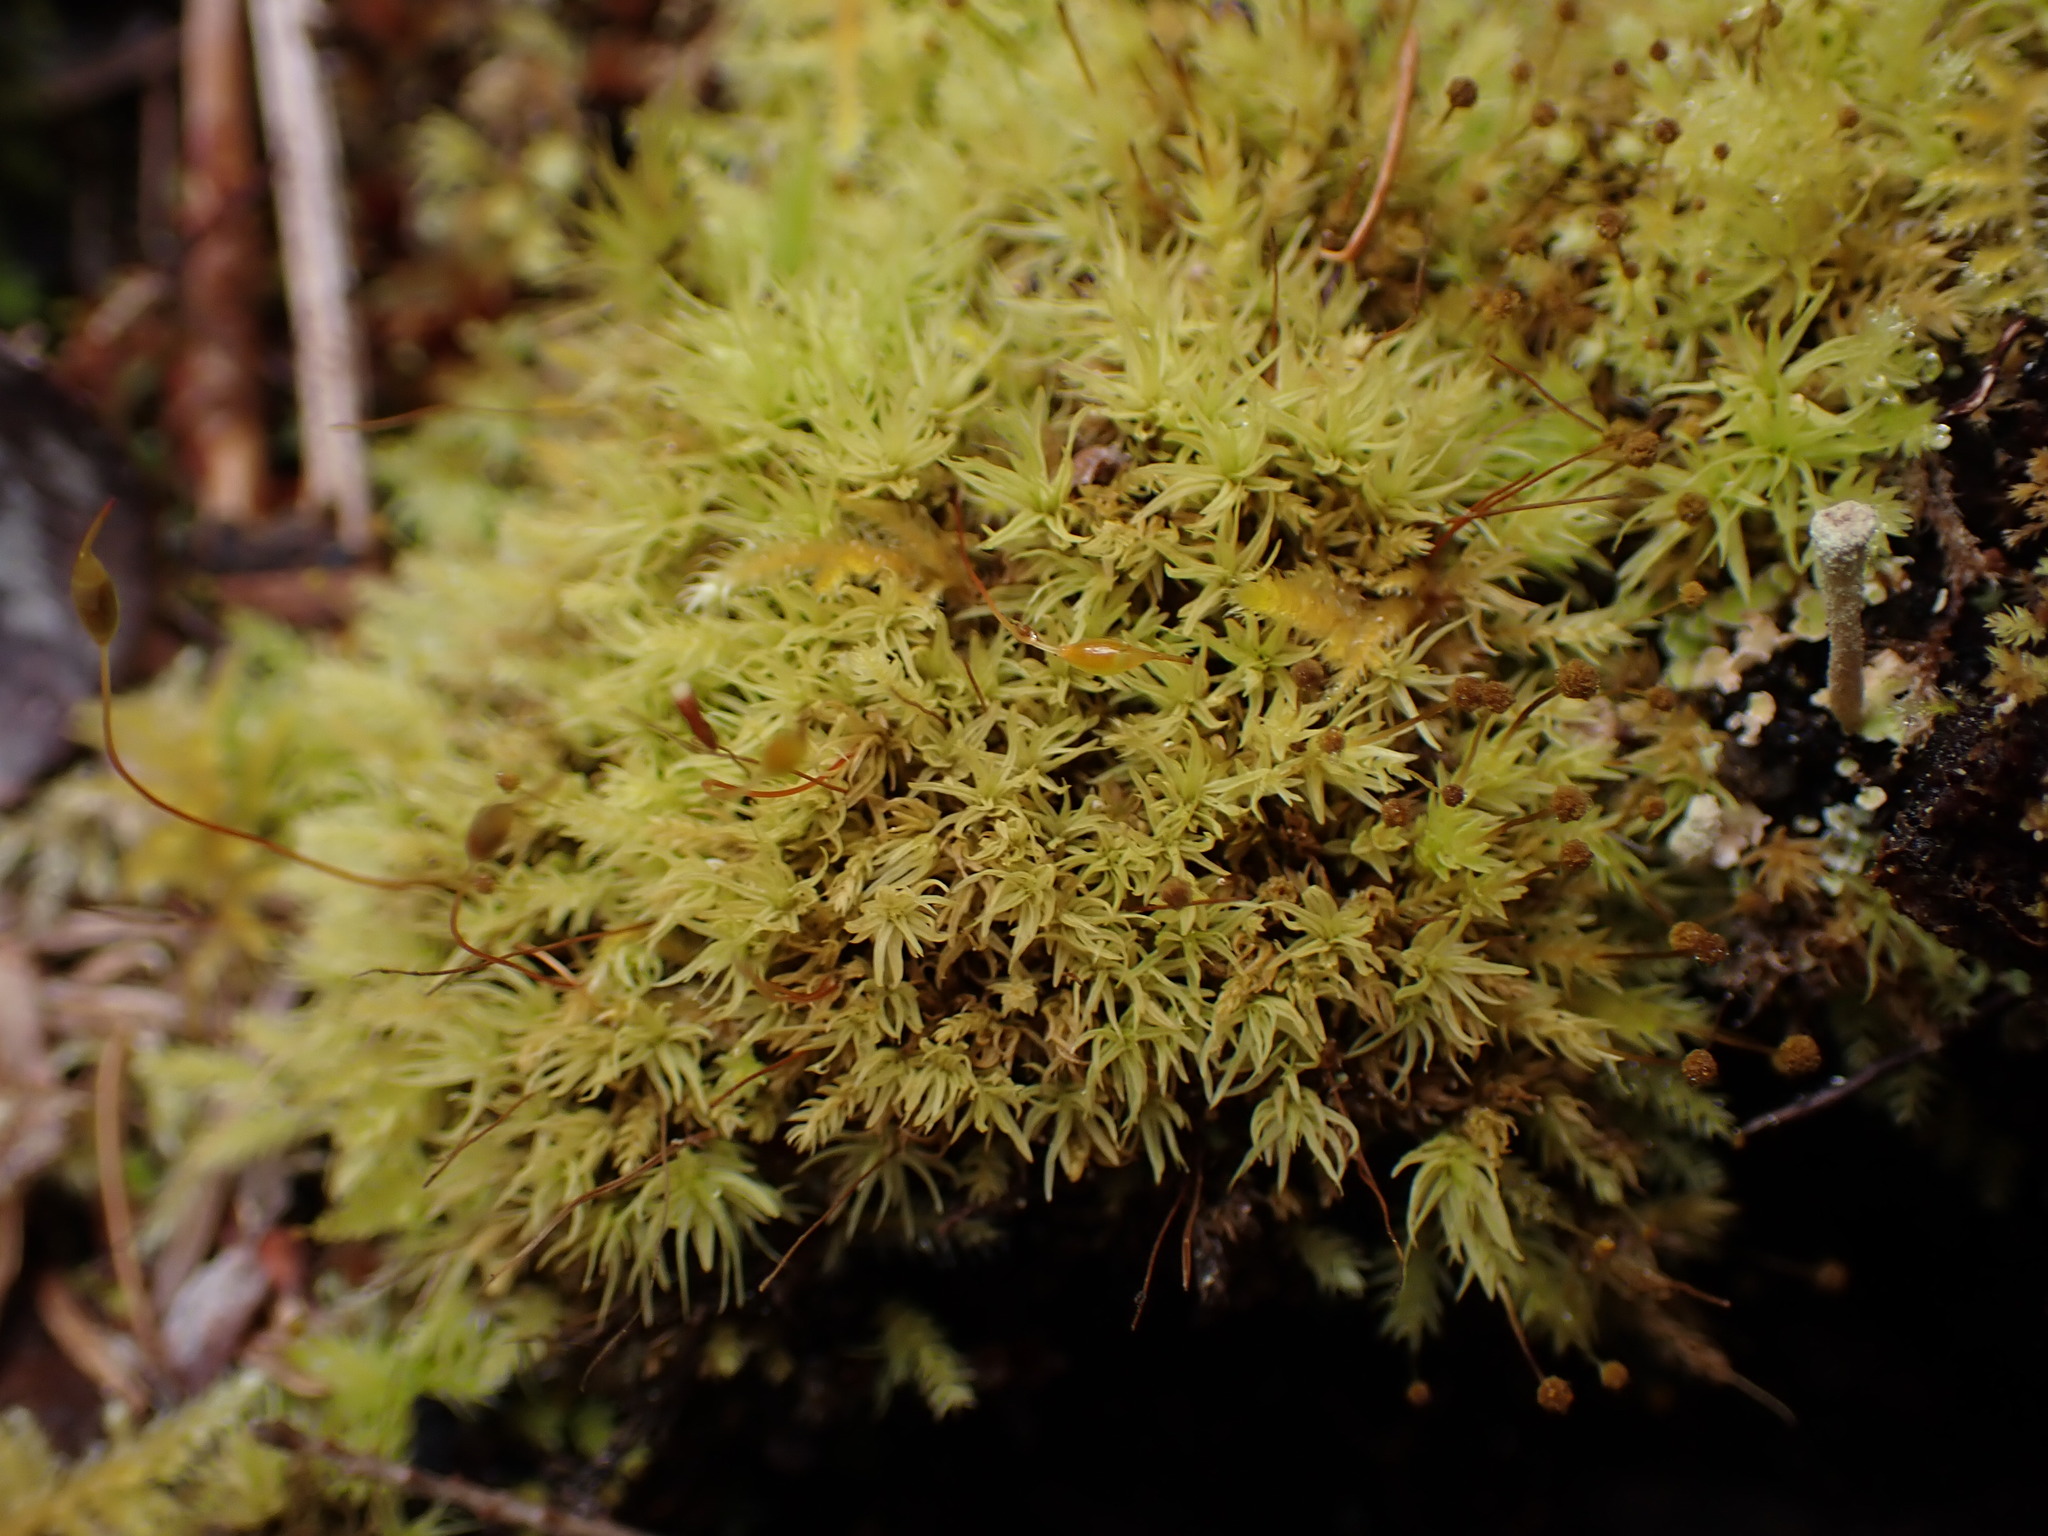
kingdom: Plantae
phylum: Bryophyta
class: Bryopsida
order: Aulacomniales
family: Aulacomniaceae
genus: Aulacomnium
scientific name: Aulacomnium androgynum
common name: Little groove moss
